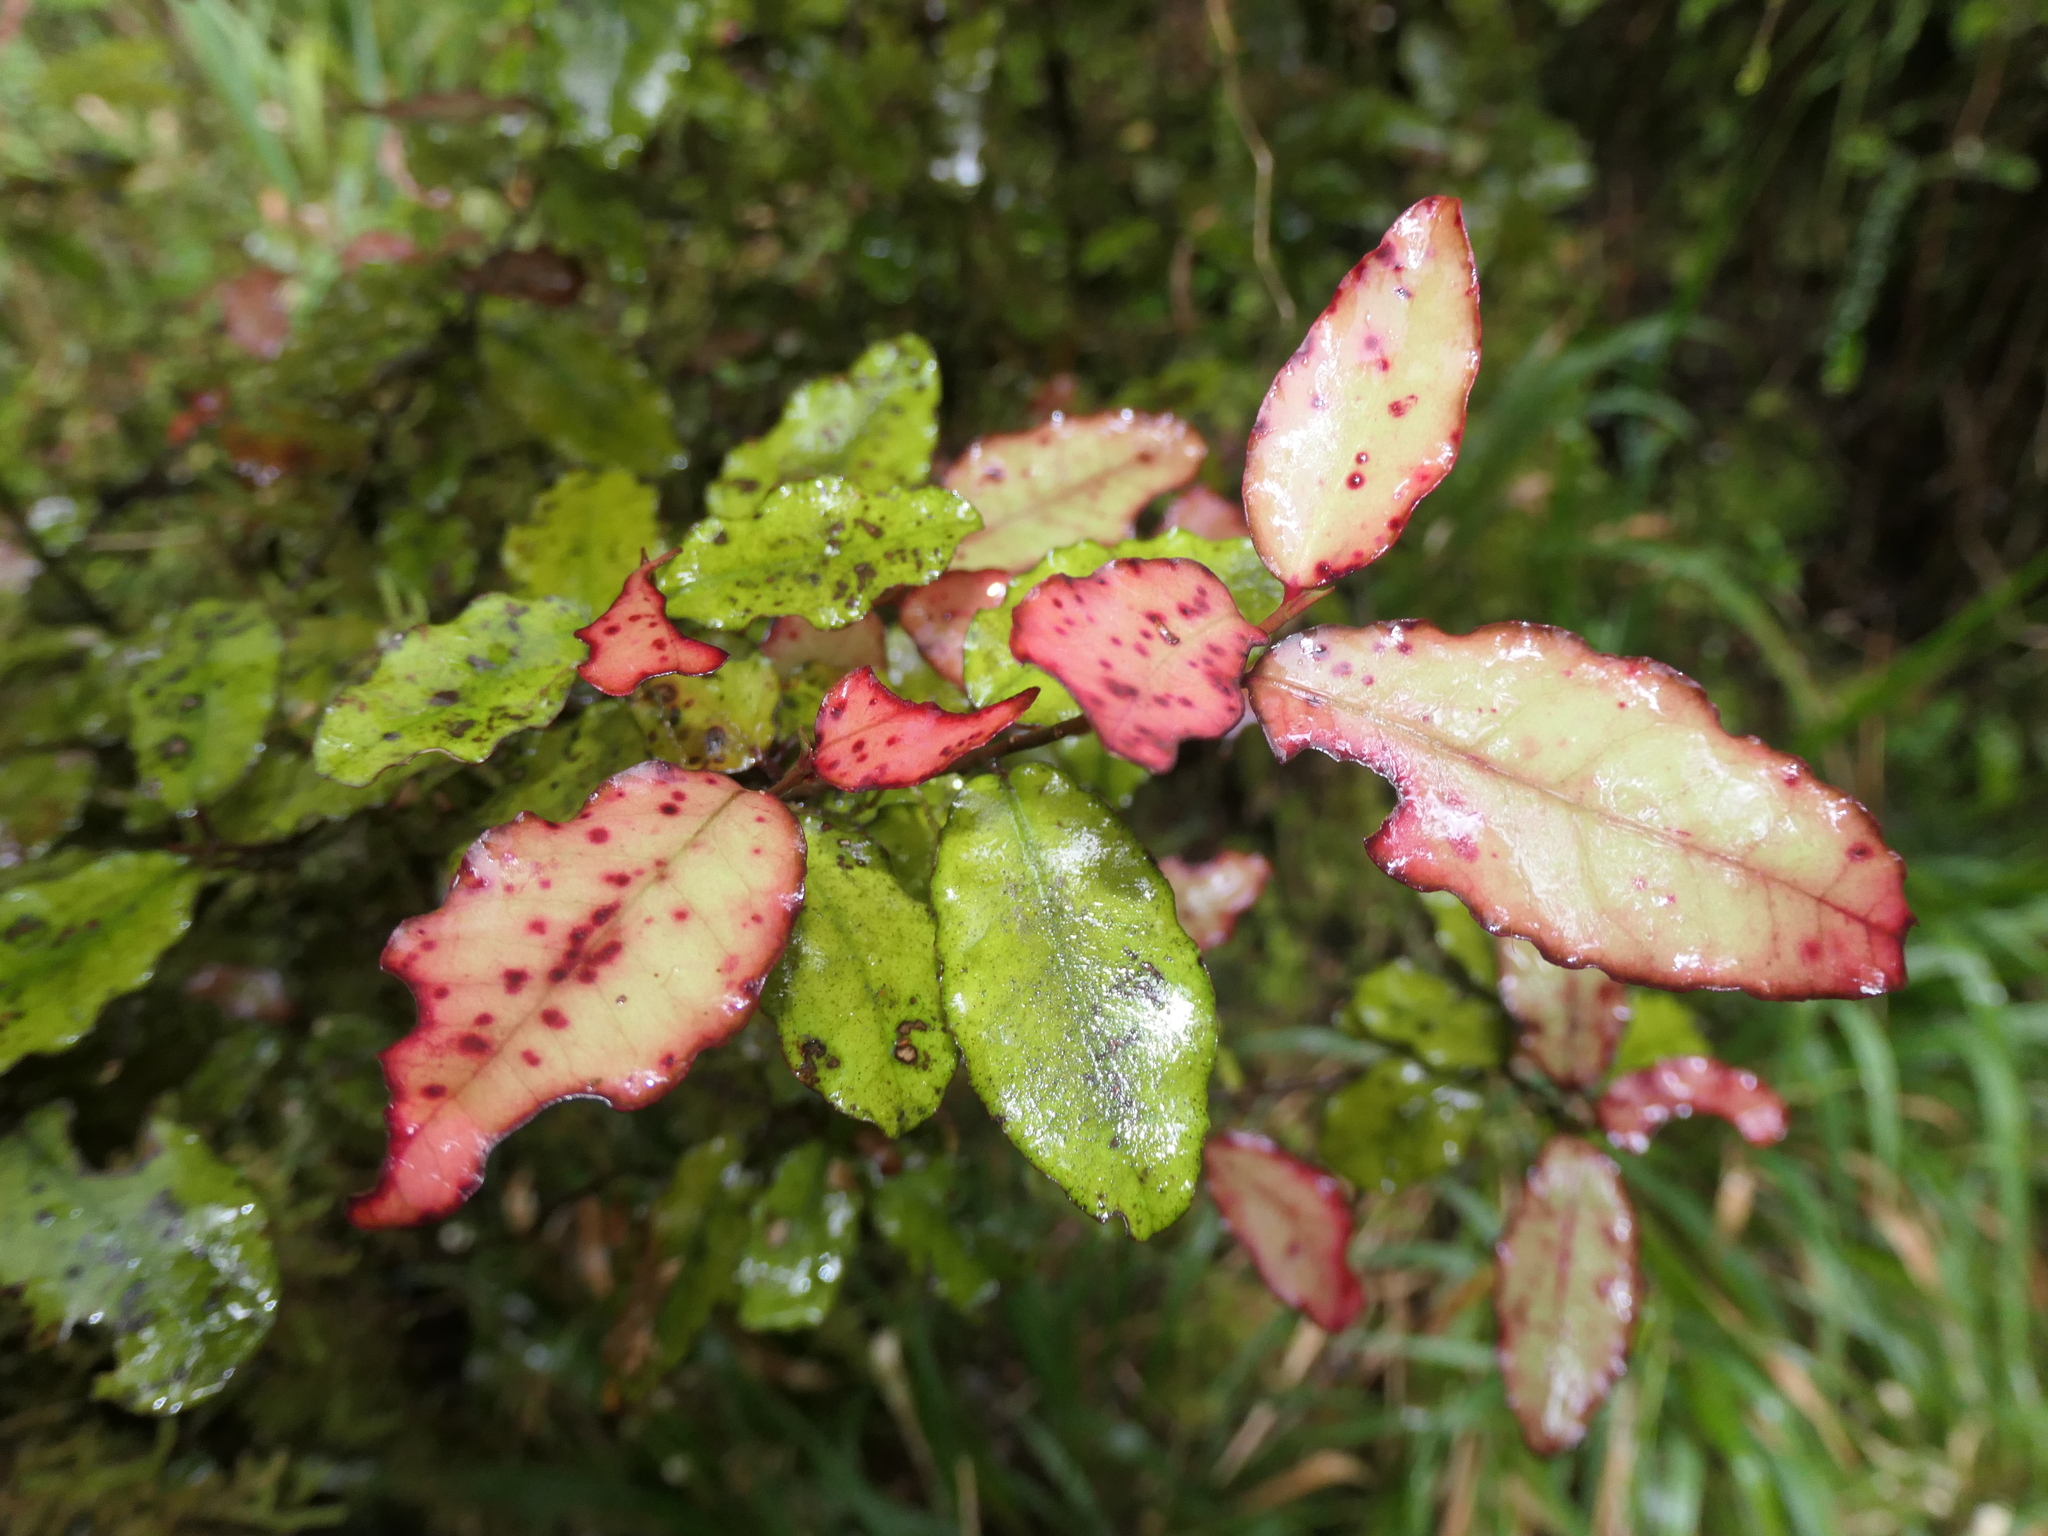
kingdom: Plantae
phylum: Tracheophyta
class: Magnoliopsida
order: Canellales
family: Winteraceae
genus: Pseudowintera
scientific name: Pseudowintera colorata
